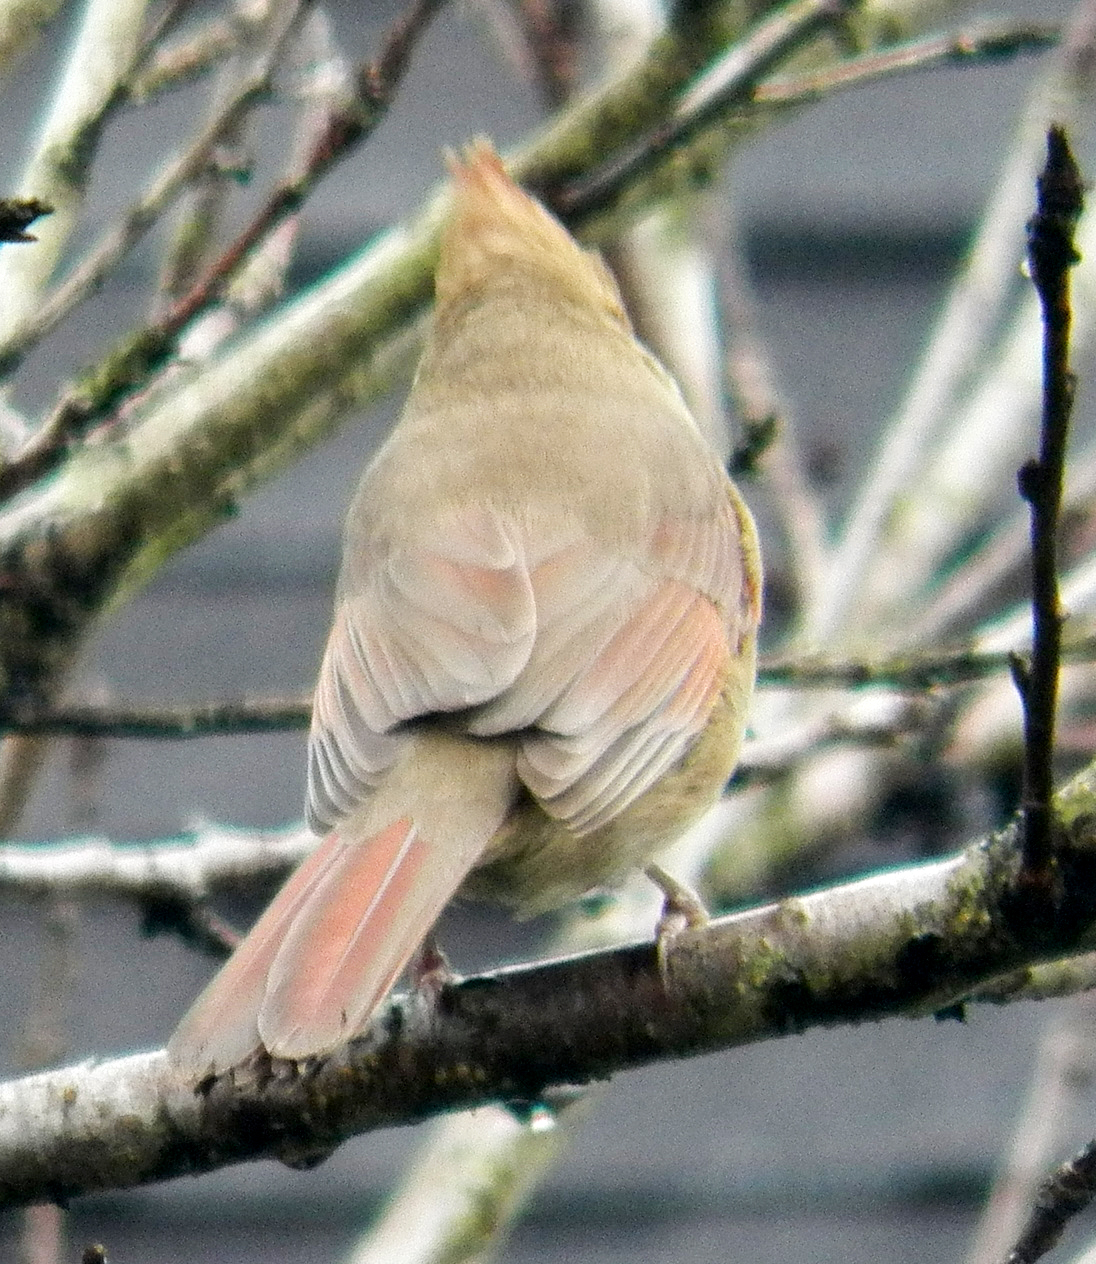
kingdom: Animalia
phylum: Chordata
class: Aves
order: Passeriformes
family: Cardinalidae
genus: Cardinalis
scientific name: Cardinalis cardinalis
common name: Northern cardinal
